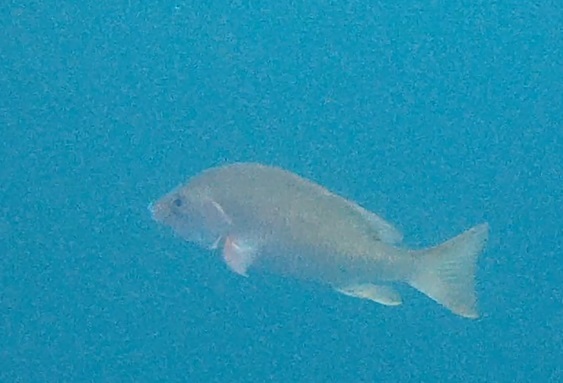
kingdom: Animalia
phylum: Chordata
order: Perciformes
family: Lutjanidae
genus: Lutjanus
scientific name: Lutjanus argentiventris
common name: Yellow snapper
